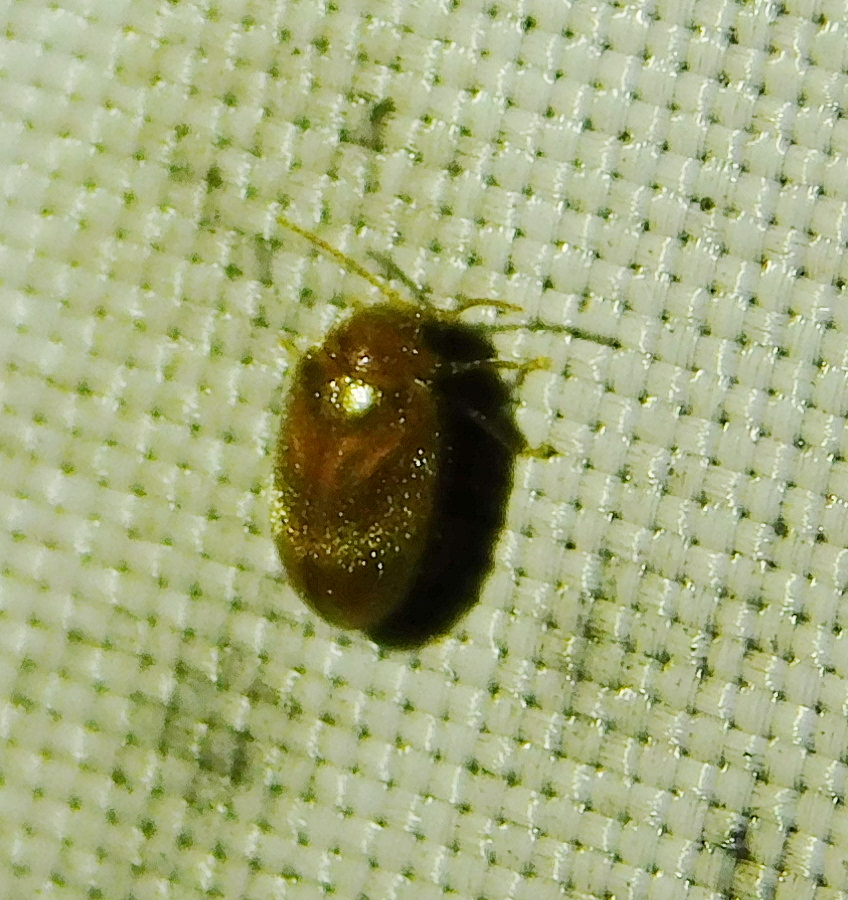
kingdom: Animalia
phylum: Arthropoda
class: Insecta
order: Coleoptera
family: Scirtidae
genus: Contacyphon
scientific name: Contacyphon
